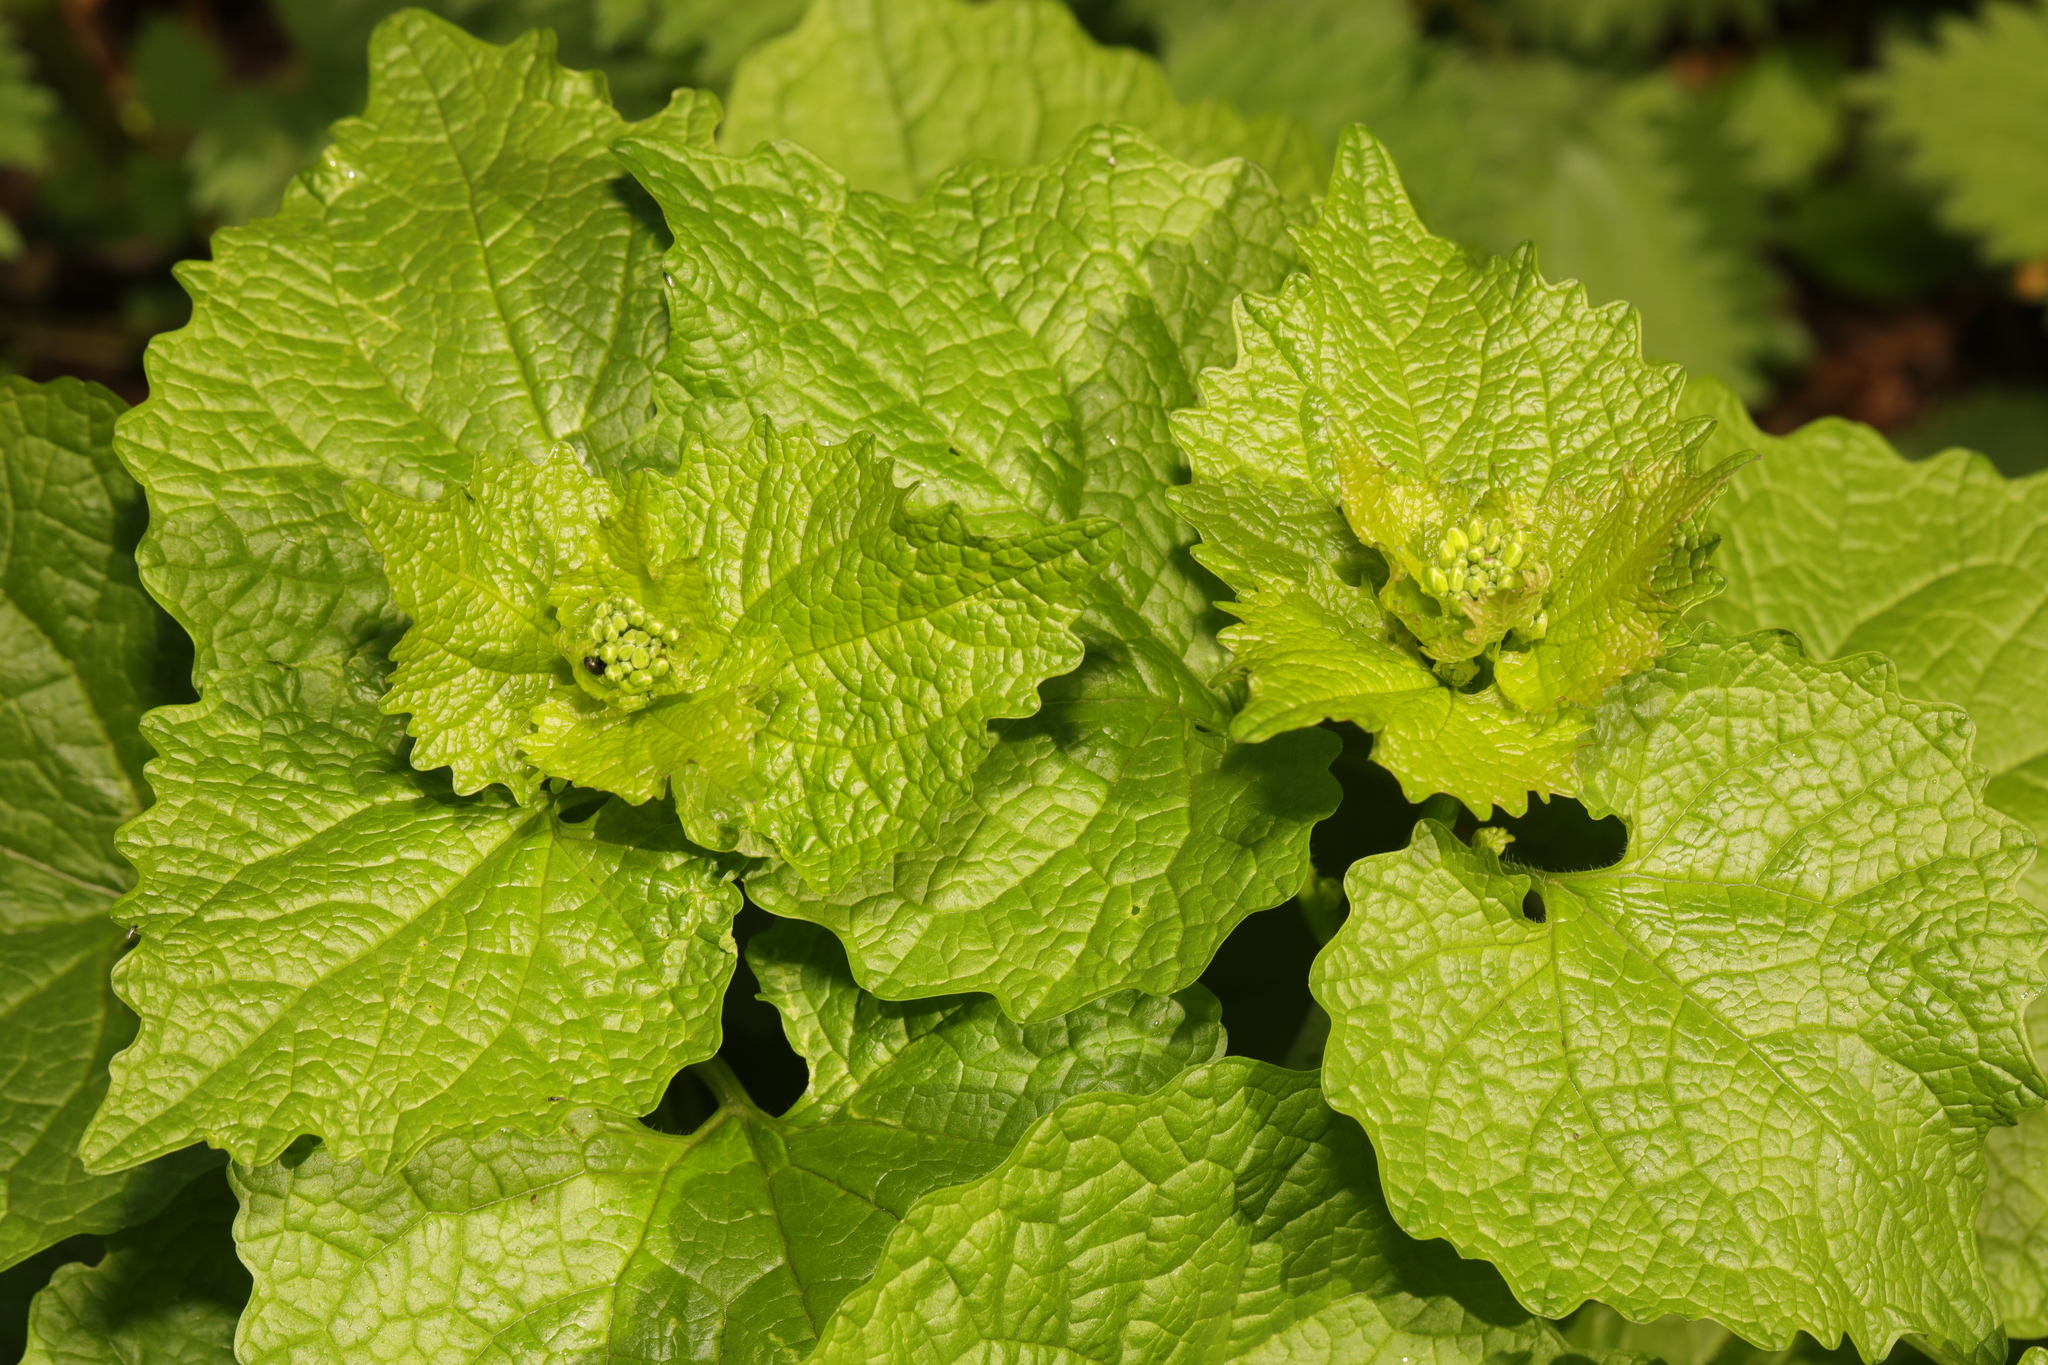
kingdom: Plantae
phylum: Tracheophyta
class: Magnoliopsida
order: Brassicales
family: Brassicaceae
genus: Alliaria
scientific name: Alliaria petiolata
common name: Garlic mustard
